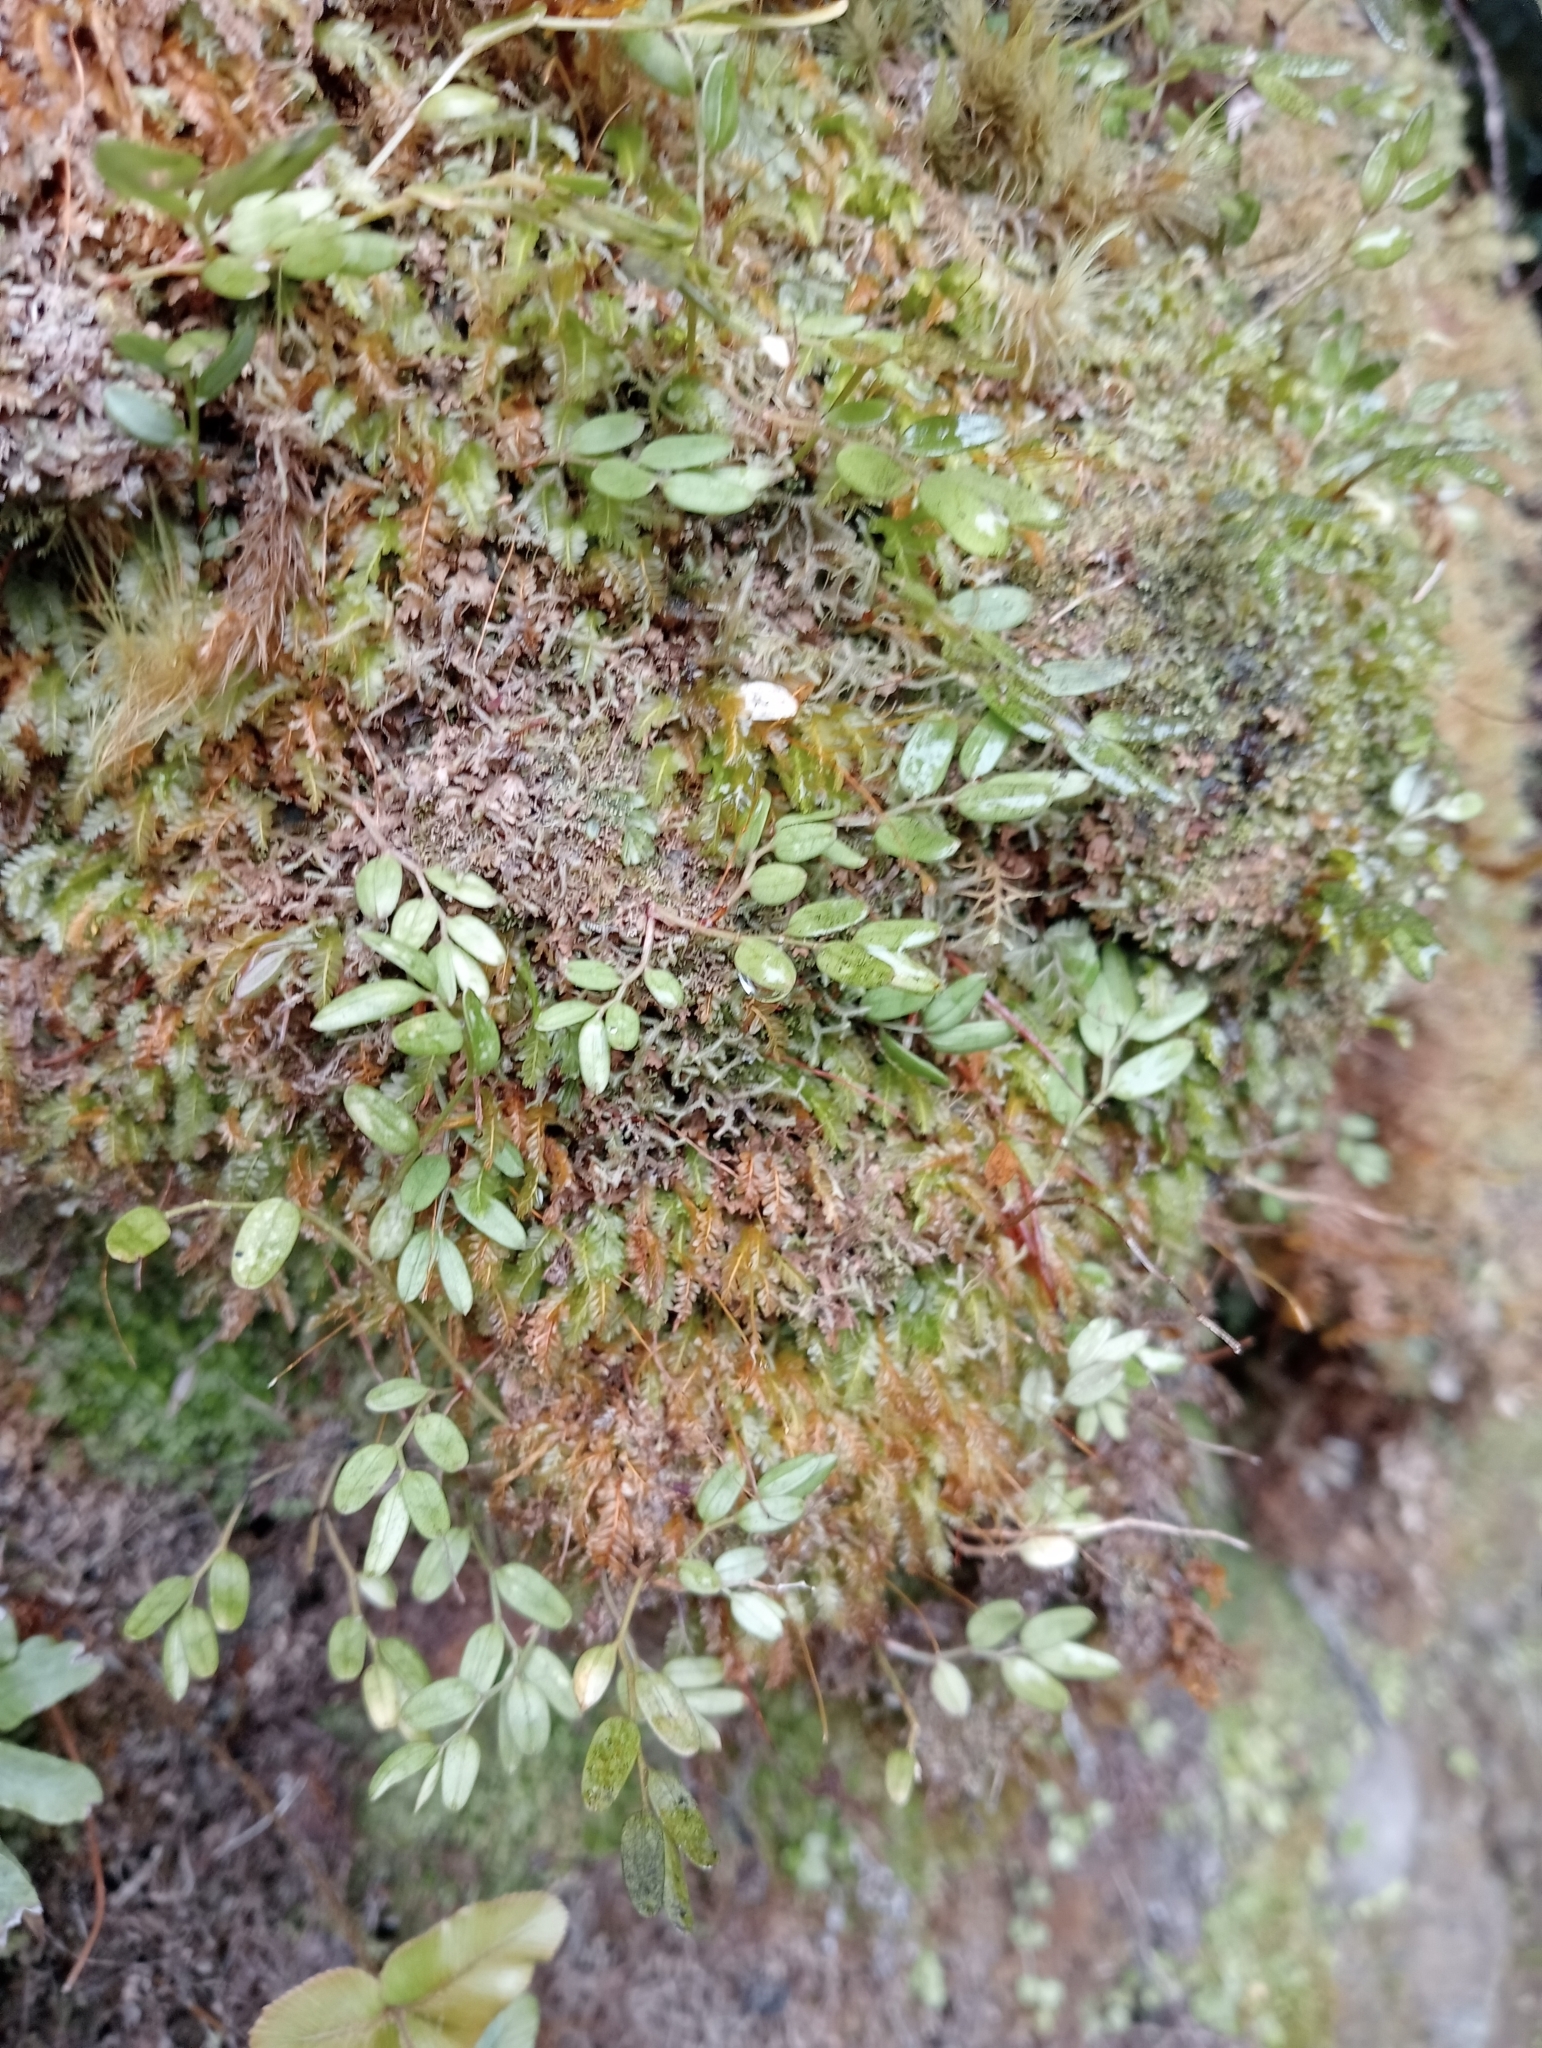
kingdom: Plantae
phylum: Tracheophyta
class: Liliopsida
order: Liliales
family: Alstroemeriaceae
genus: Luzuriaga
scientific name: Luzuriaga parviflora
